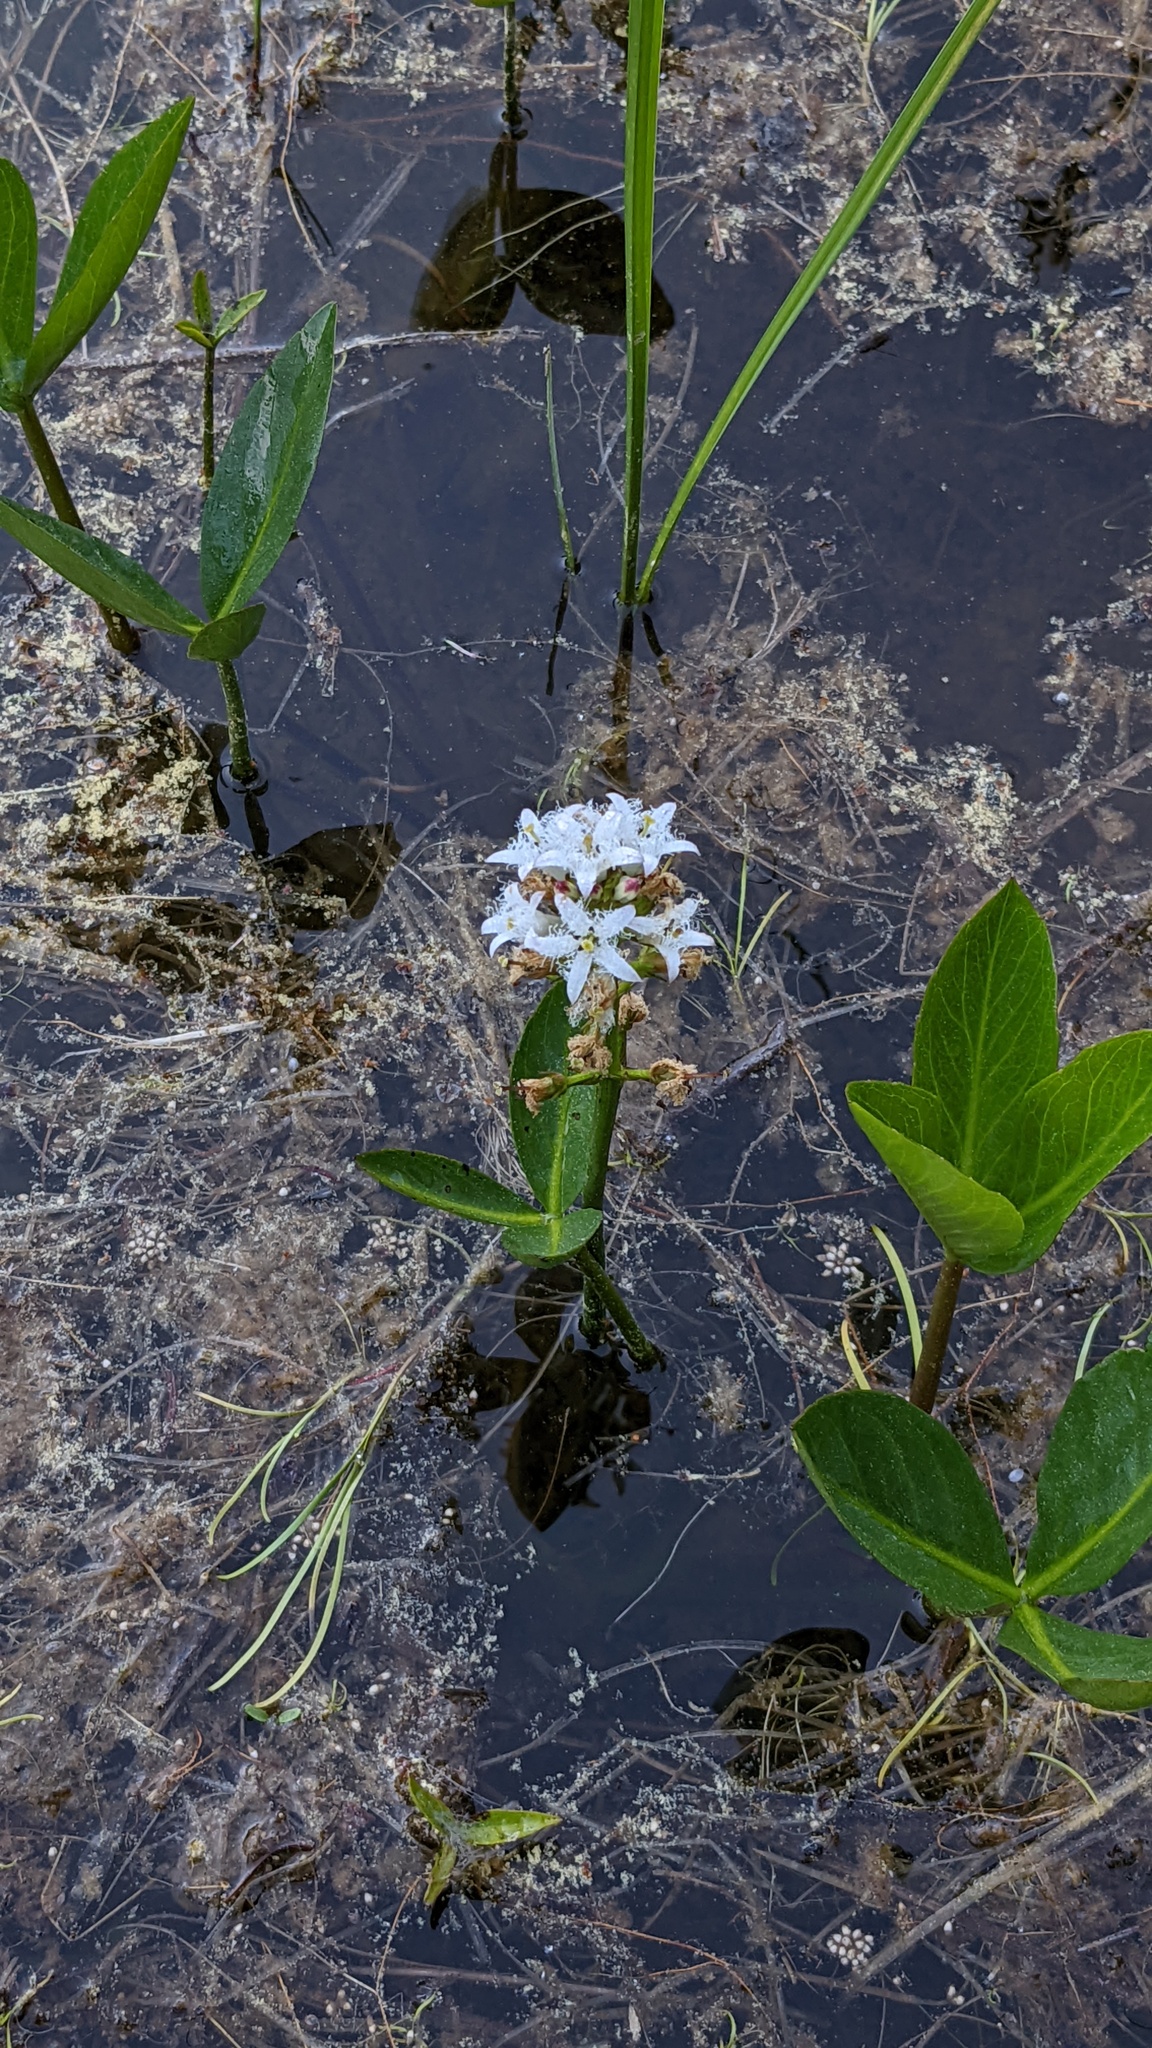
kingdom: Plantae
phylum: Tracheophyta
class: Magnoliopsida
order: Asterales
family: Menyanthaceae
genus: Menyanthes
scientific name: Menyanthes trifoliata
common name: Bogbean
